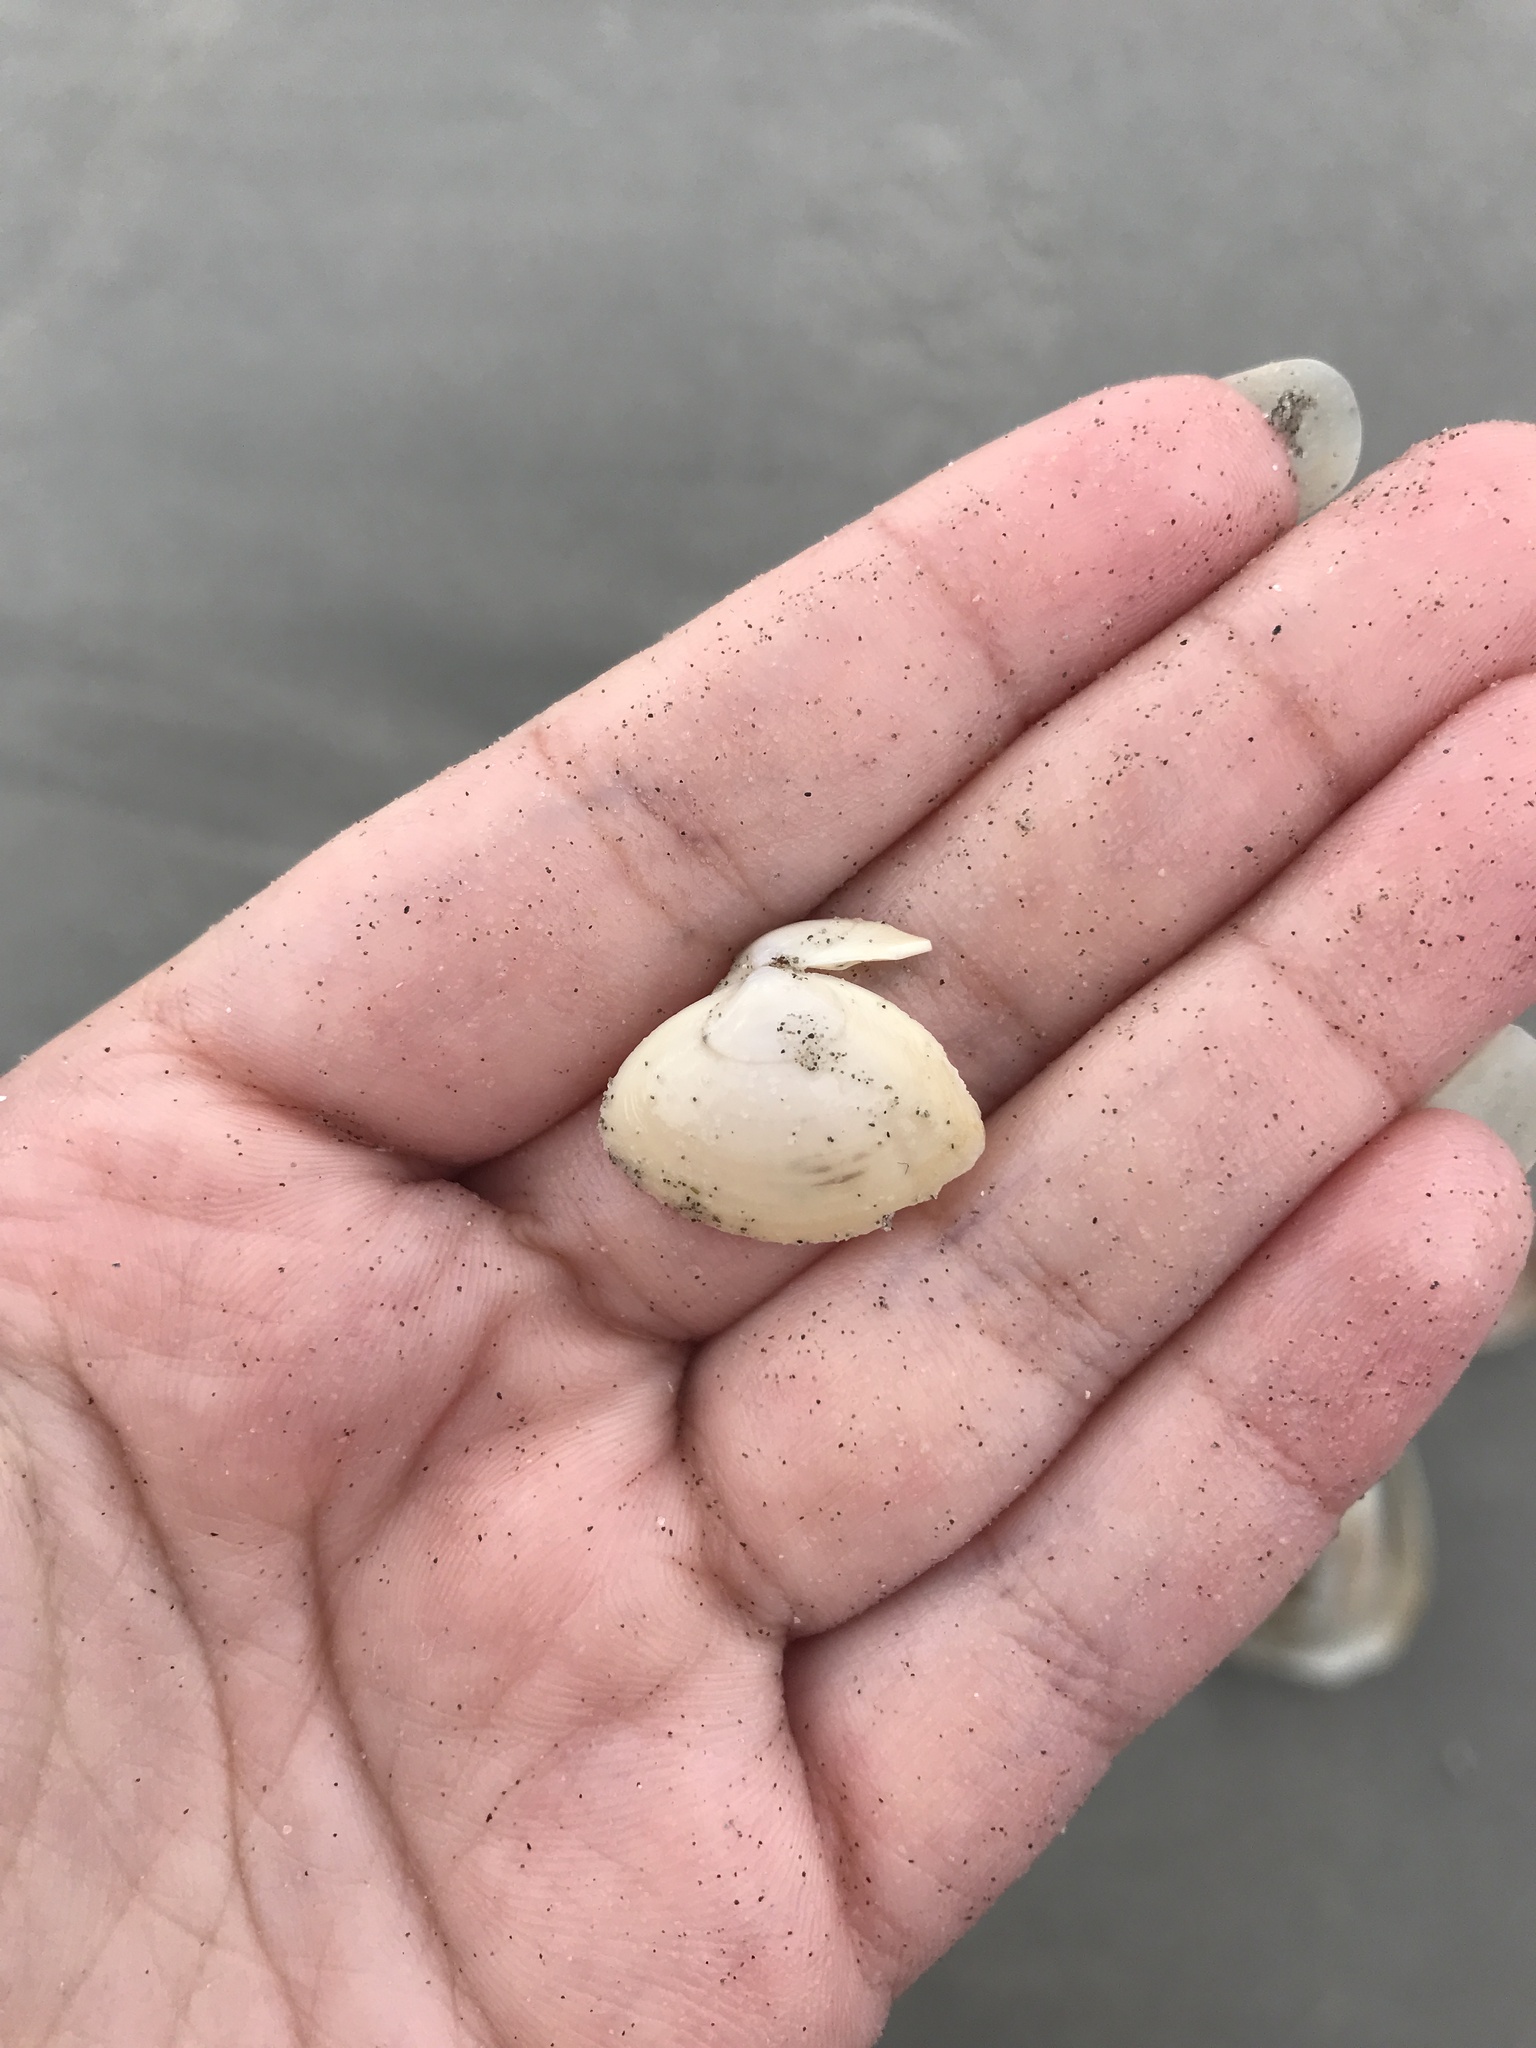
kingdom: Animalia
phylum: Mollusca
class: Bivalvia
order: Venerida
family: Mactridae
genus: Spisula
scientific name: Spisula solidissima
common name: Atlantic surf clam
